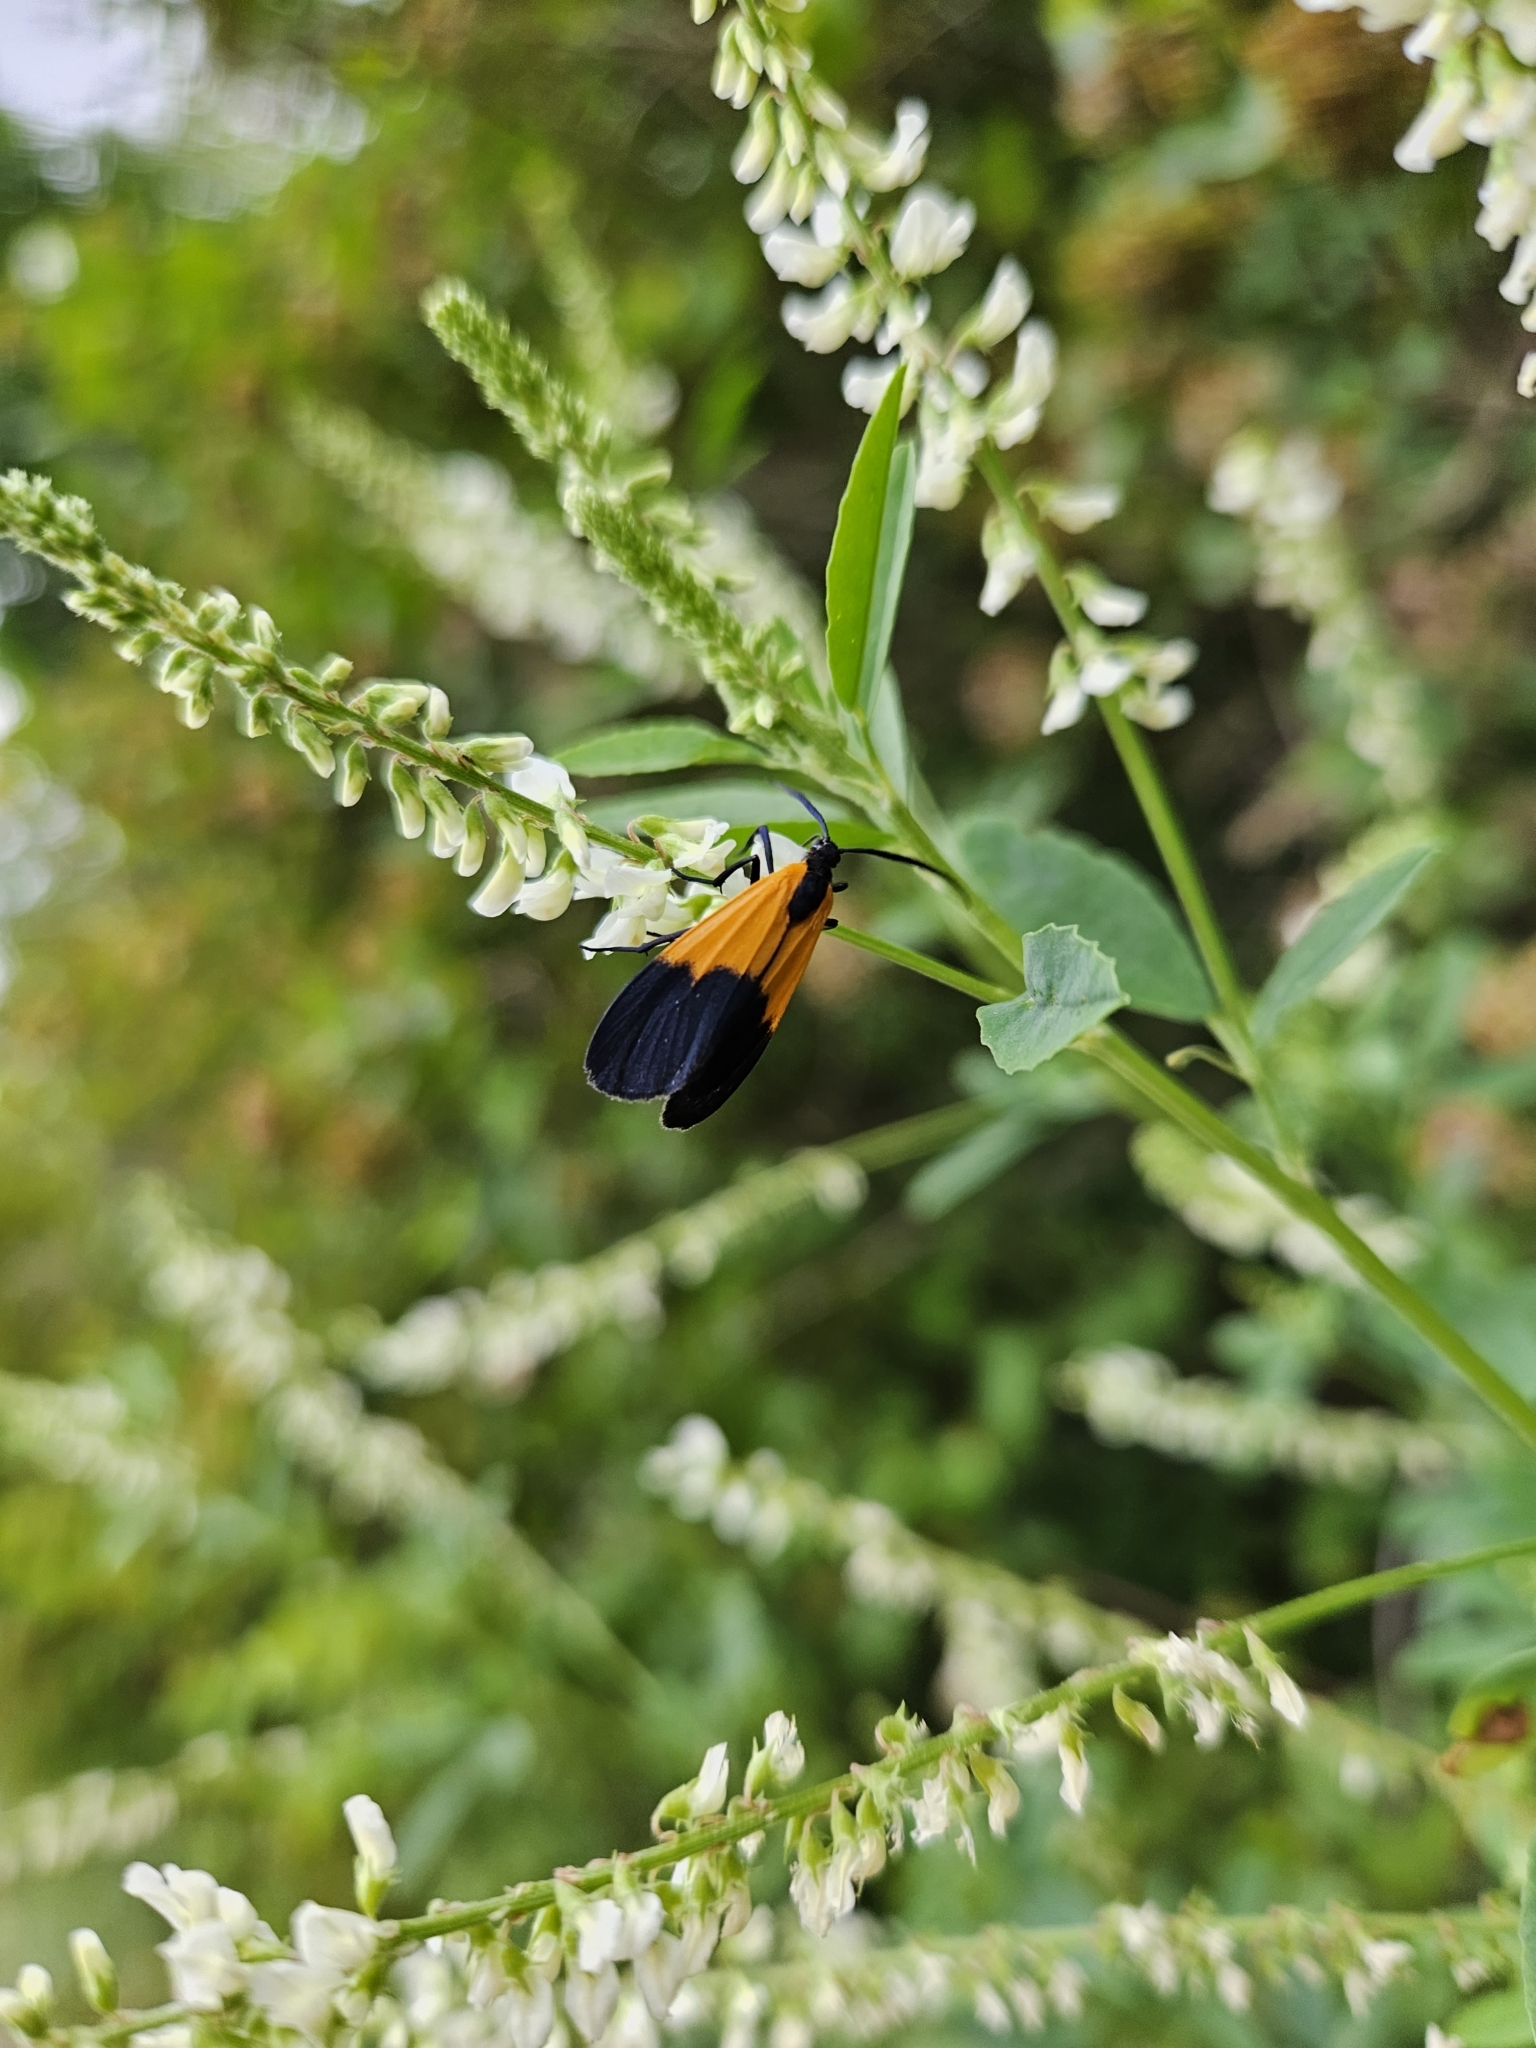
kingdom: Animalia
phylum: Arthropoda
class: Insecta
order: Lepidoptera
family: Erebidae
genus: Lycomorpha
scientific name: Lycomorpha pholus
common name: Black-and-yellow lichen moth
